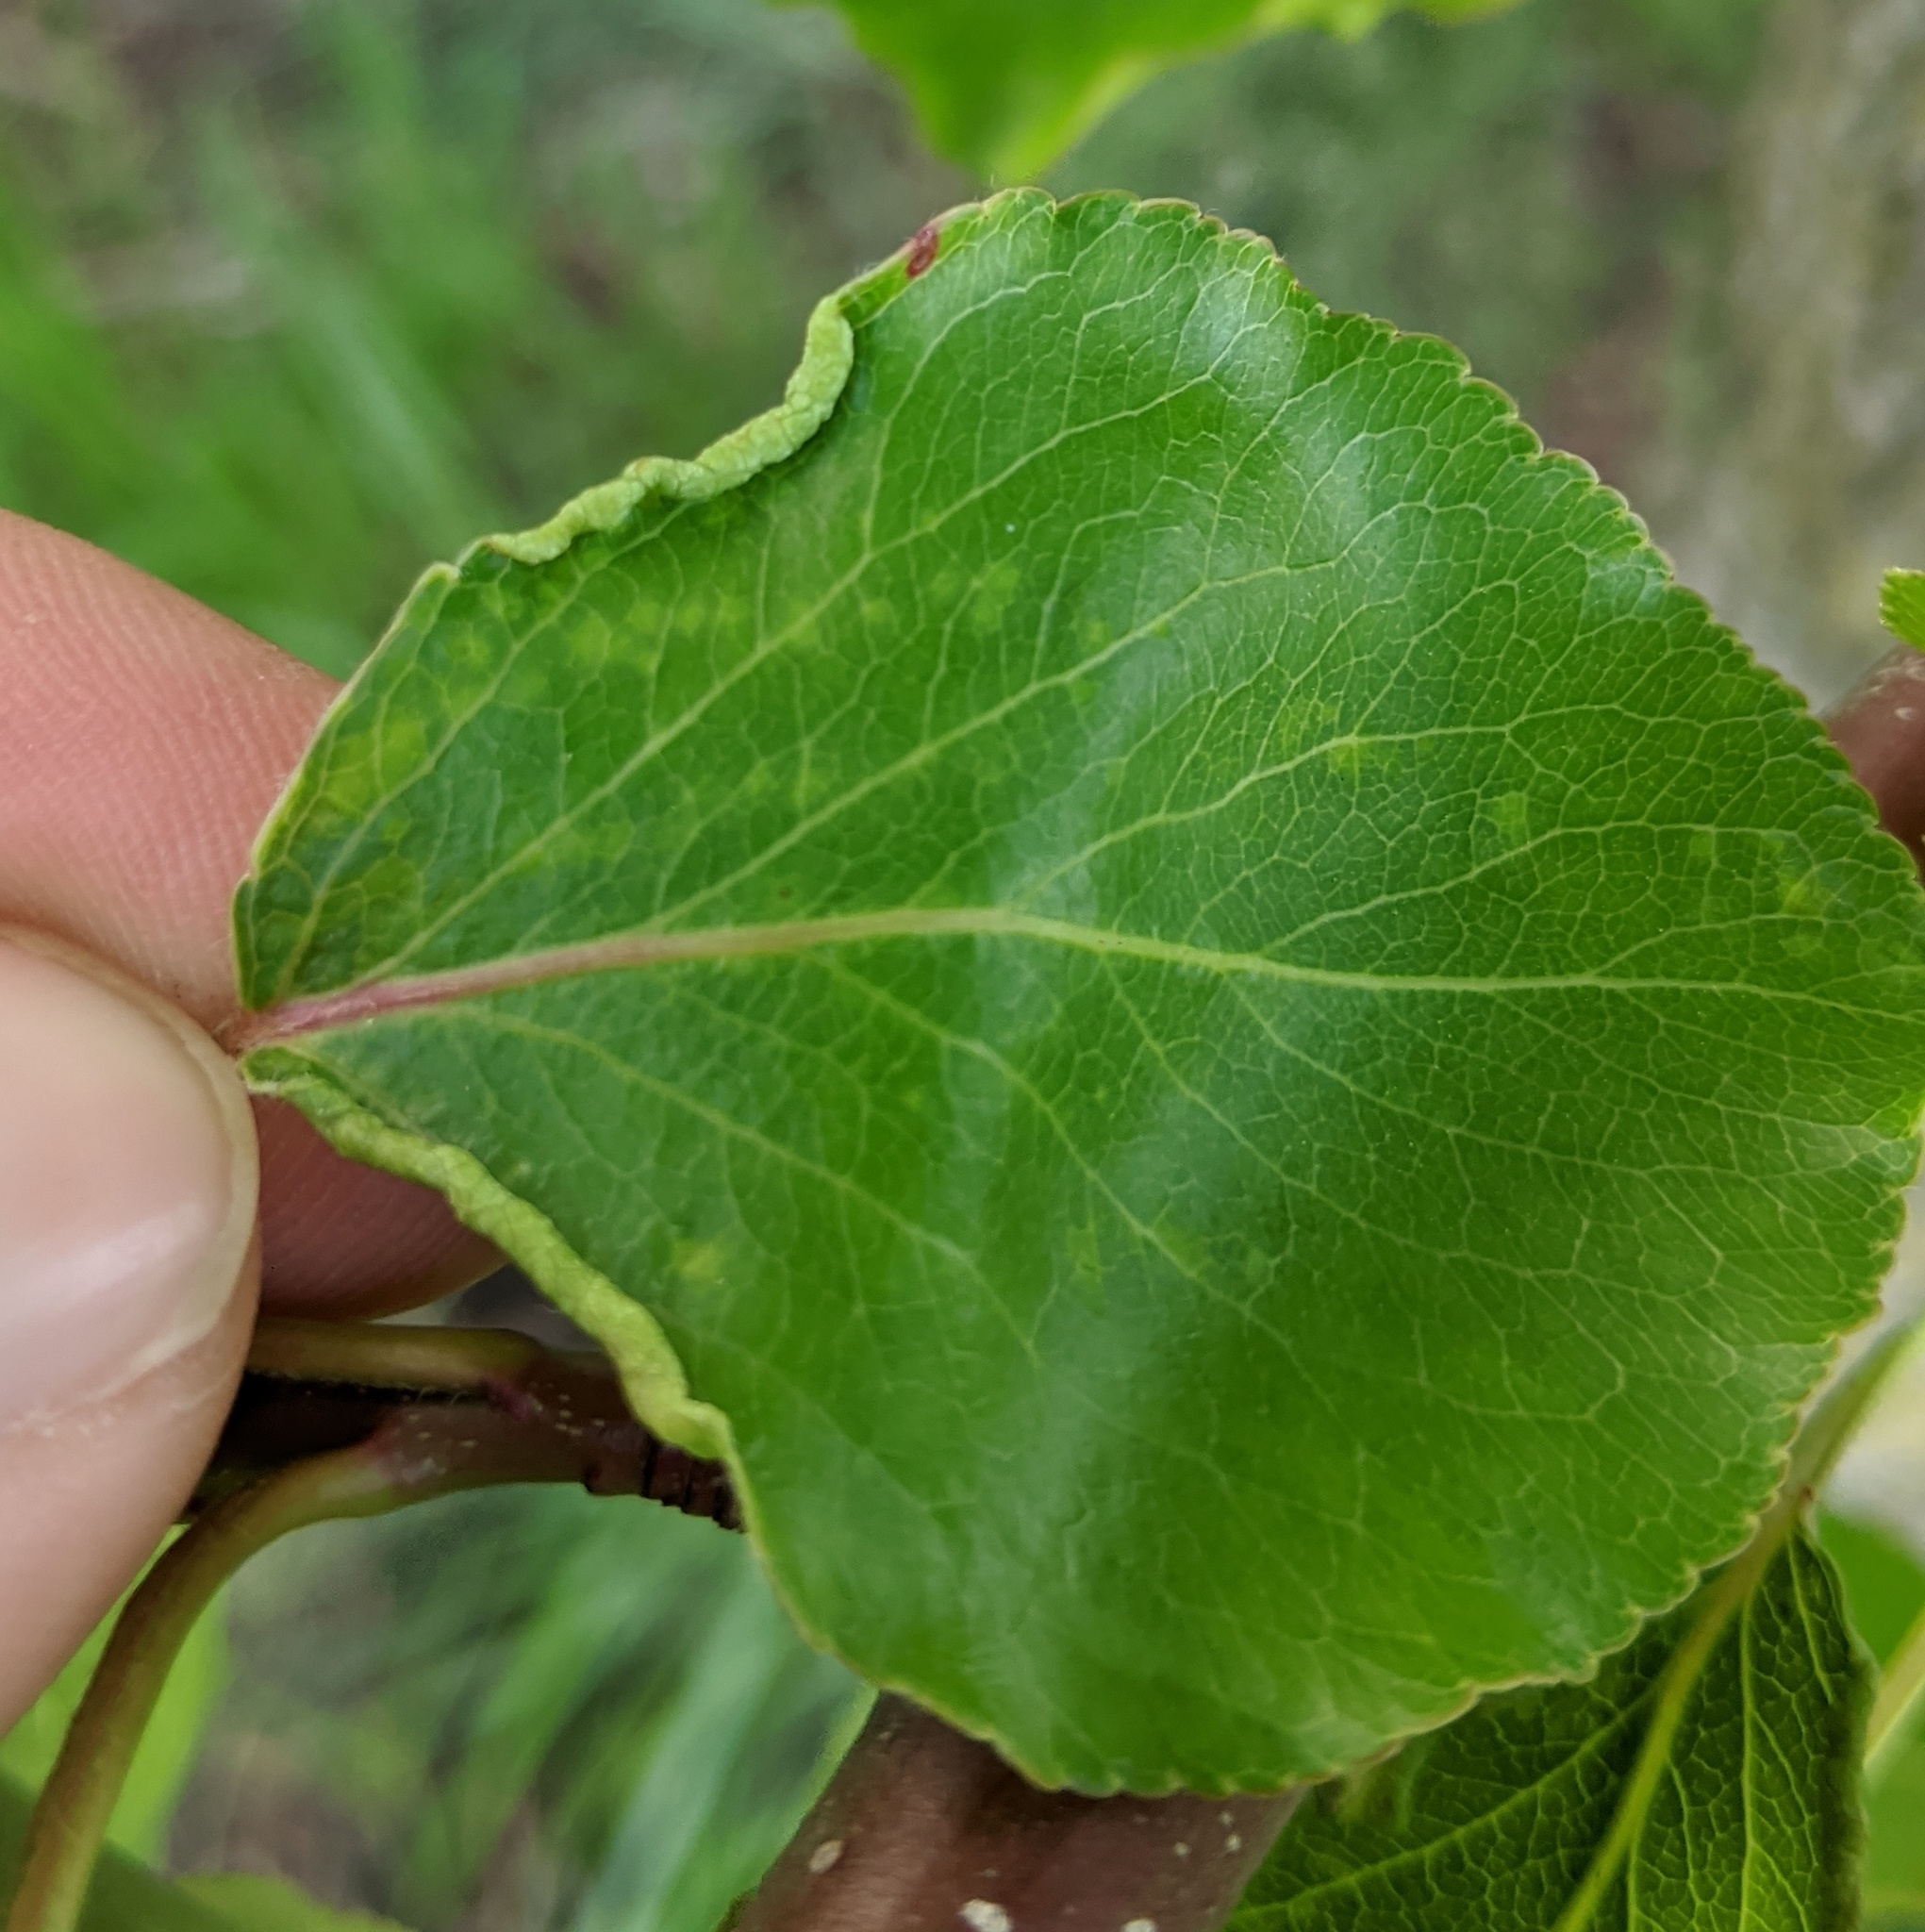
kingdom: Animalia
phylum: Arthropoda
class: Arachnida
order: Trombidiformes
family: Eriophyidae
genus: Eriophyes
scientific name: Eriophyes marginemtorquens
